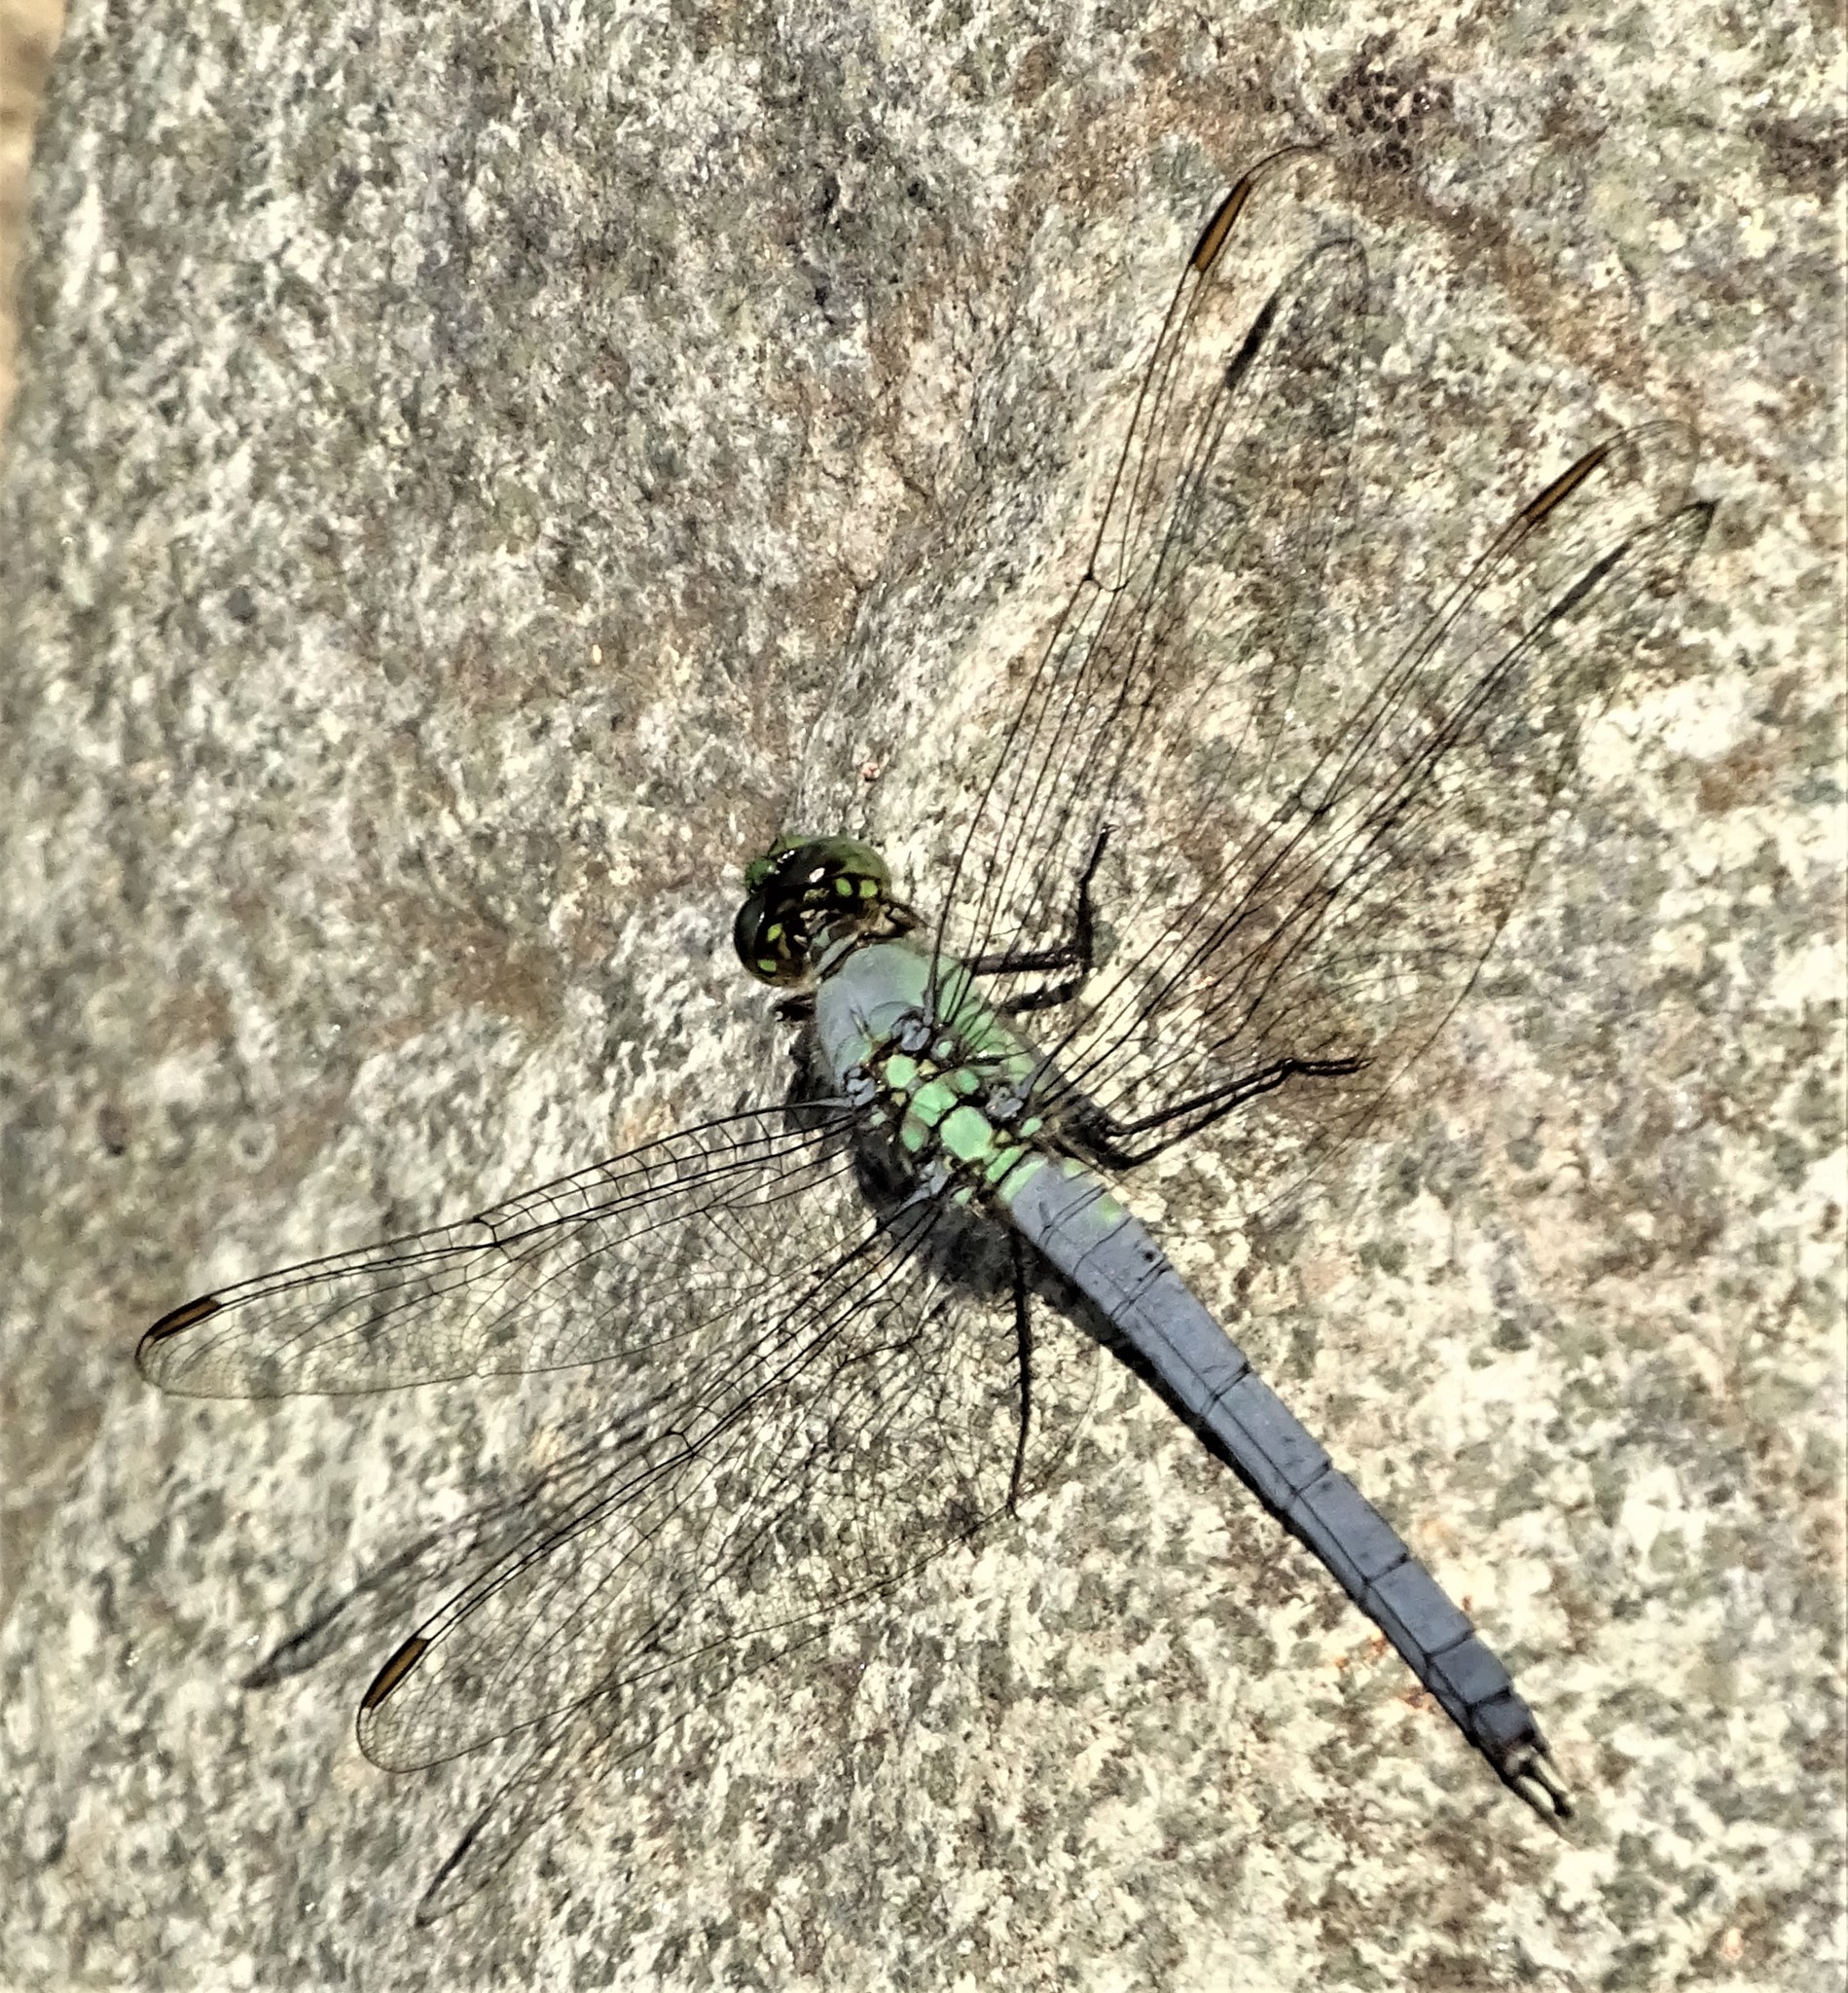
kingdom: Animalia
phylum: Arthropoda
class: Insecta
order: Odonata
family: Libellulidae
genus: Erythemis
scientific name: Erythemis simplicicollis
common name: Eastern pondhawk
